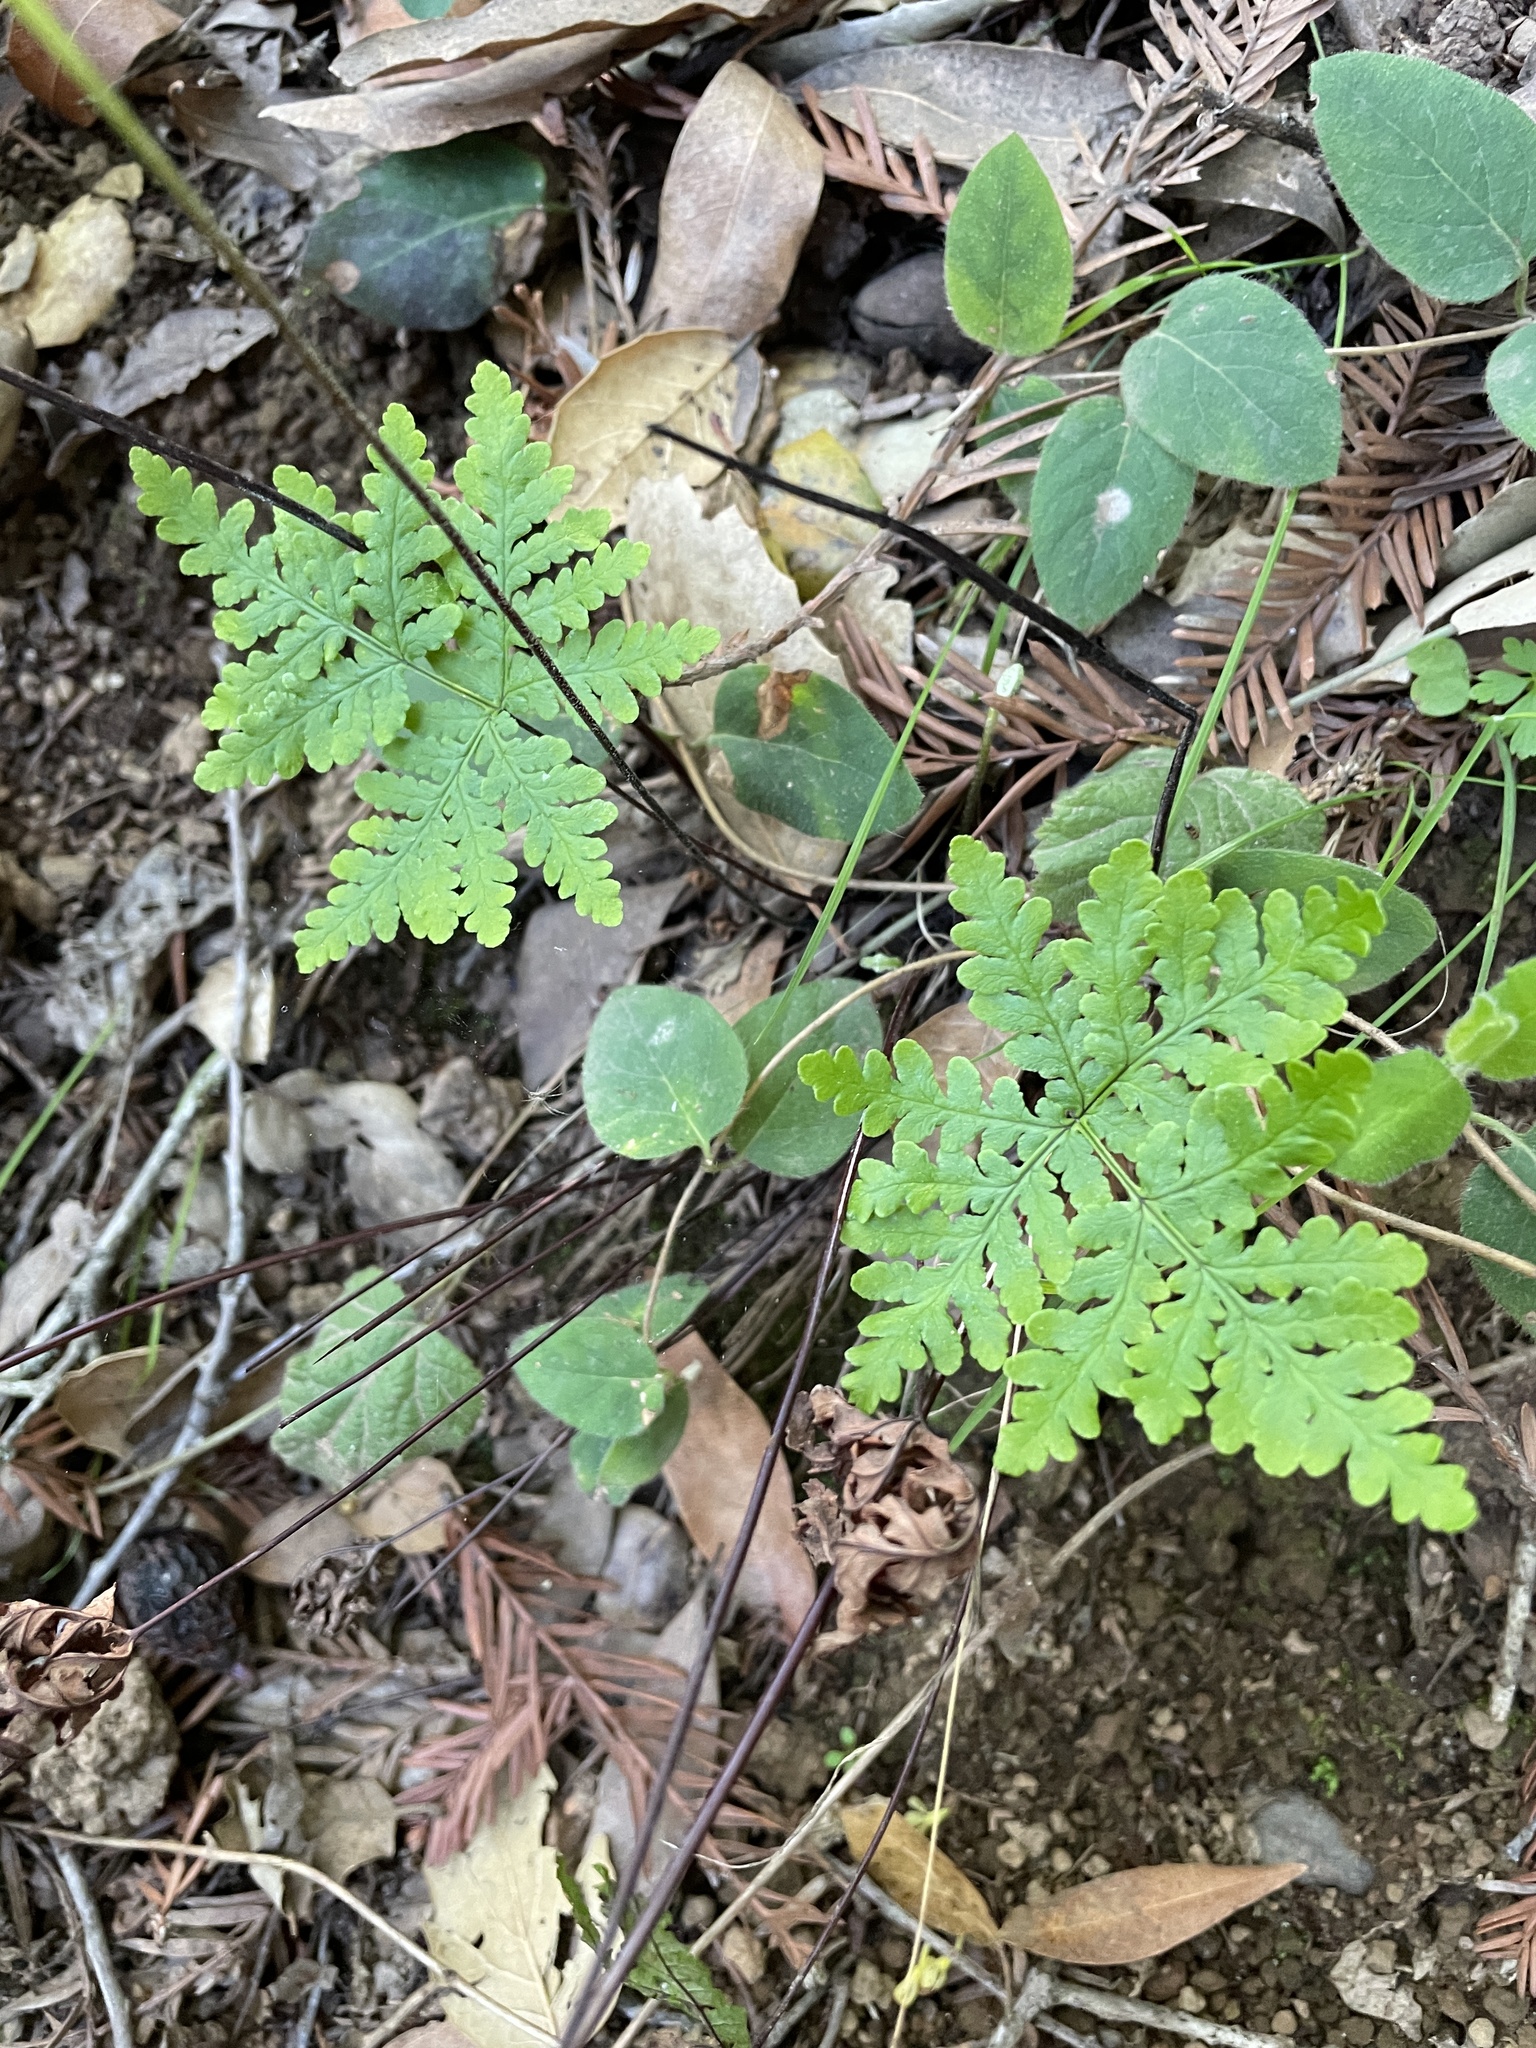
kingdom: Plantae
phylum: Tracheophyta
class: Polypodiopsida
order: Polypodiales
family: Pteridaceae
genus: Pentagramma
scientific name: Pentagramma triangularis
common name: Gold fern
